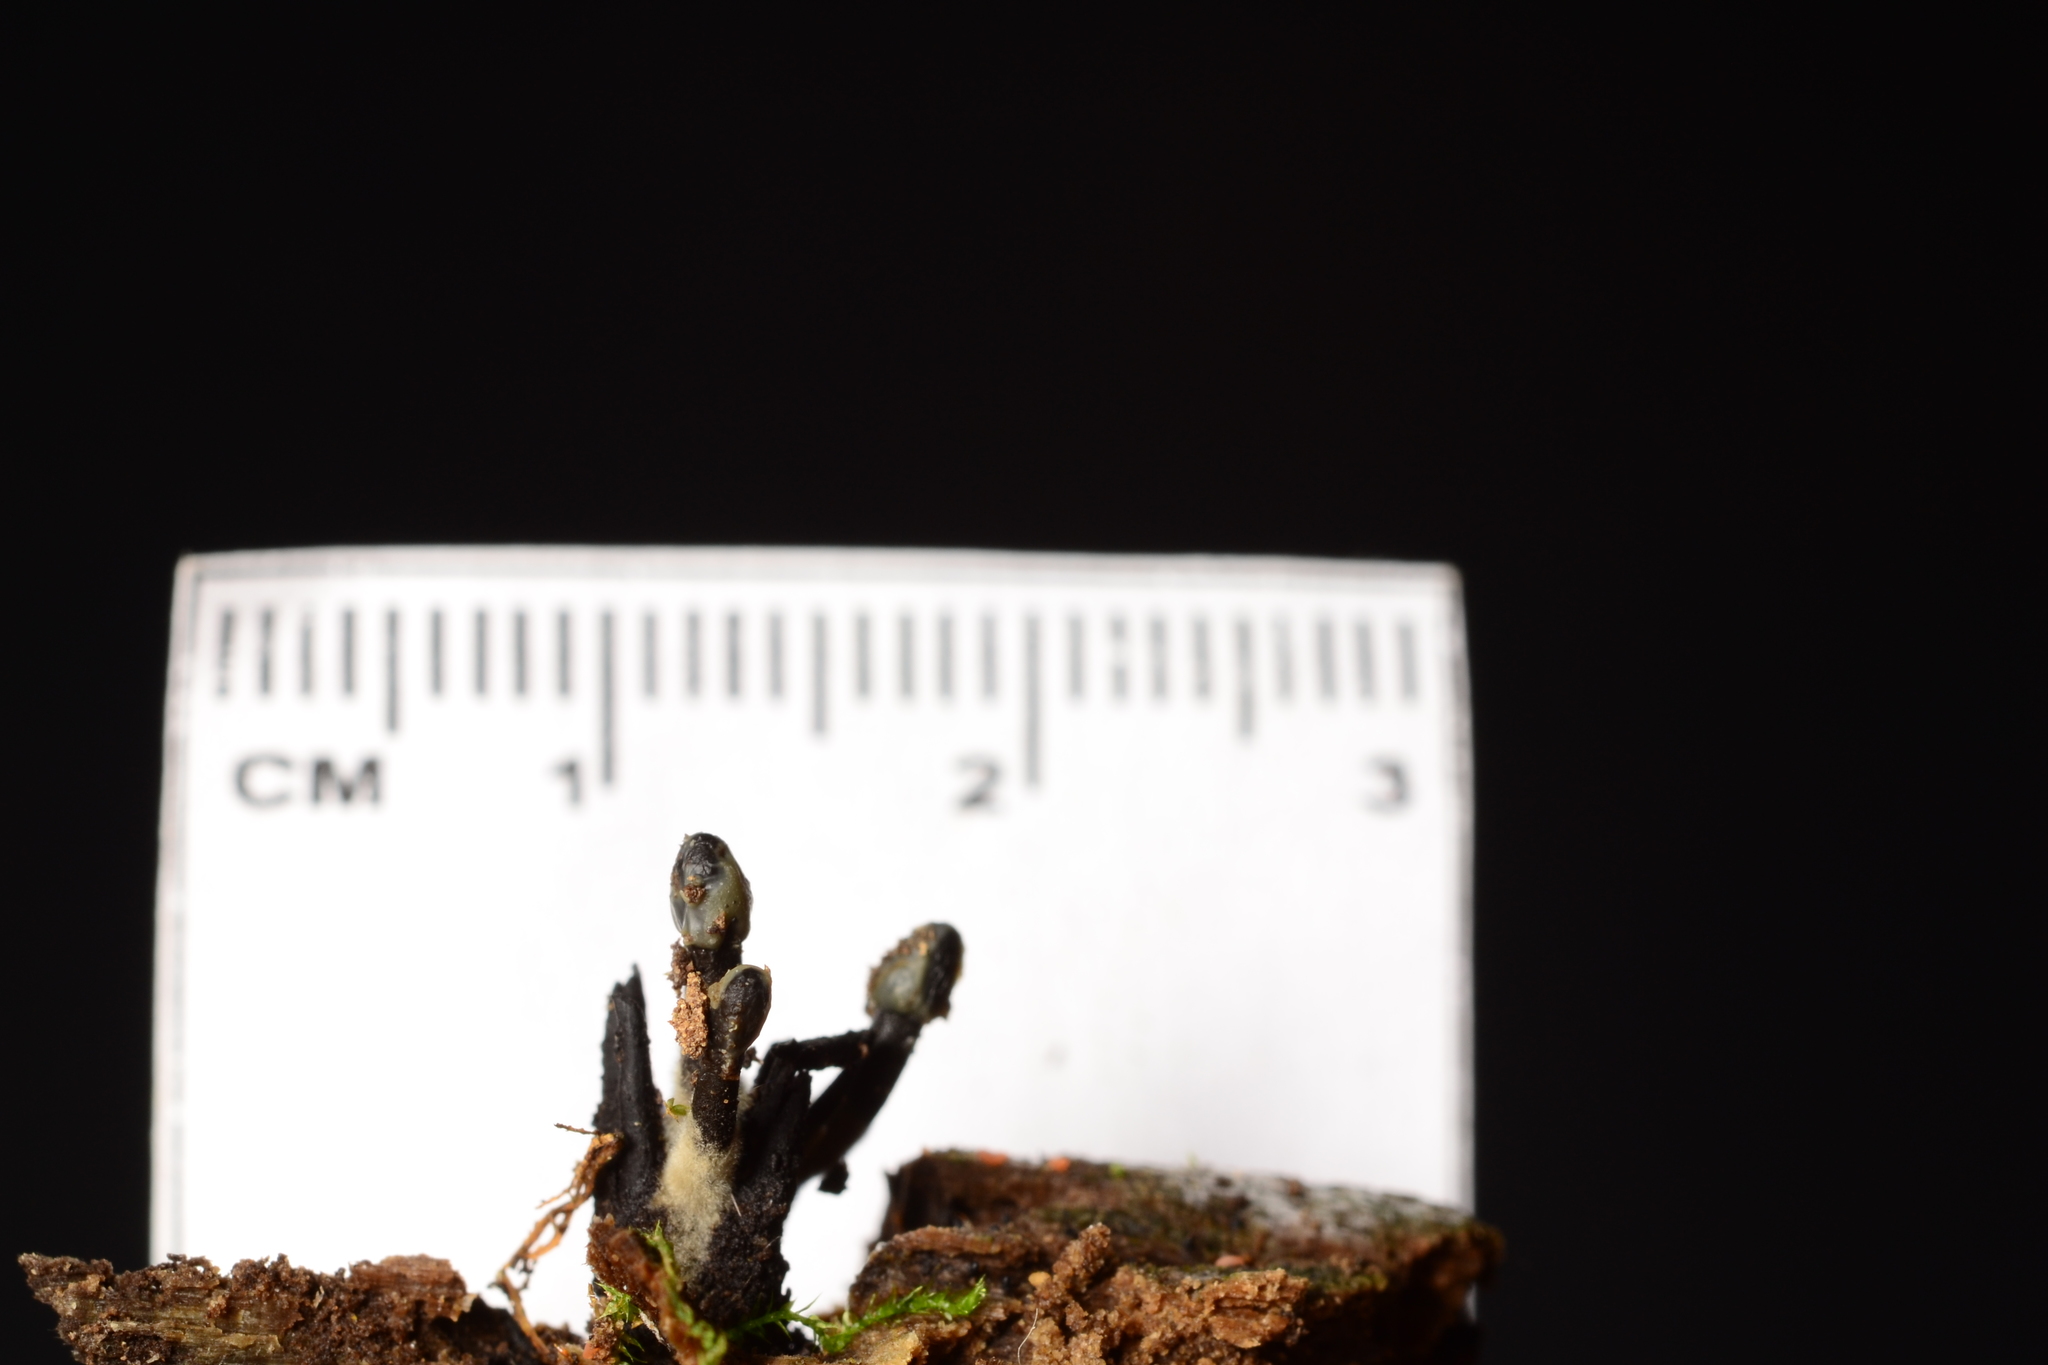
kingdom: Fungi
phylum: Ascomycota
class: Leotiomycetes
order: Helotiales
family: Bulgariaceae
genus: Holwaya
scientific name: Holwaya mucida
